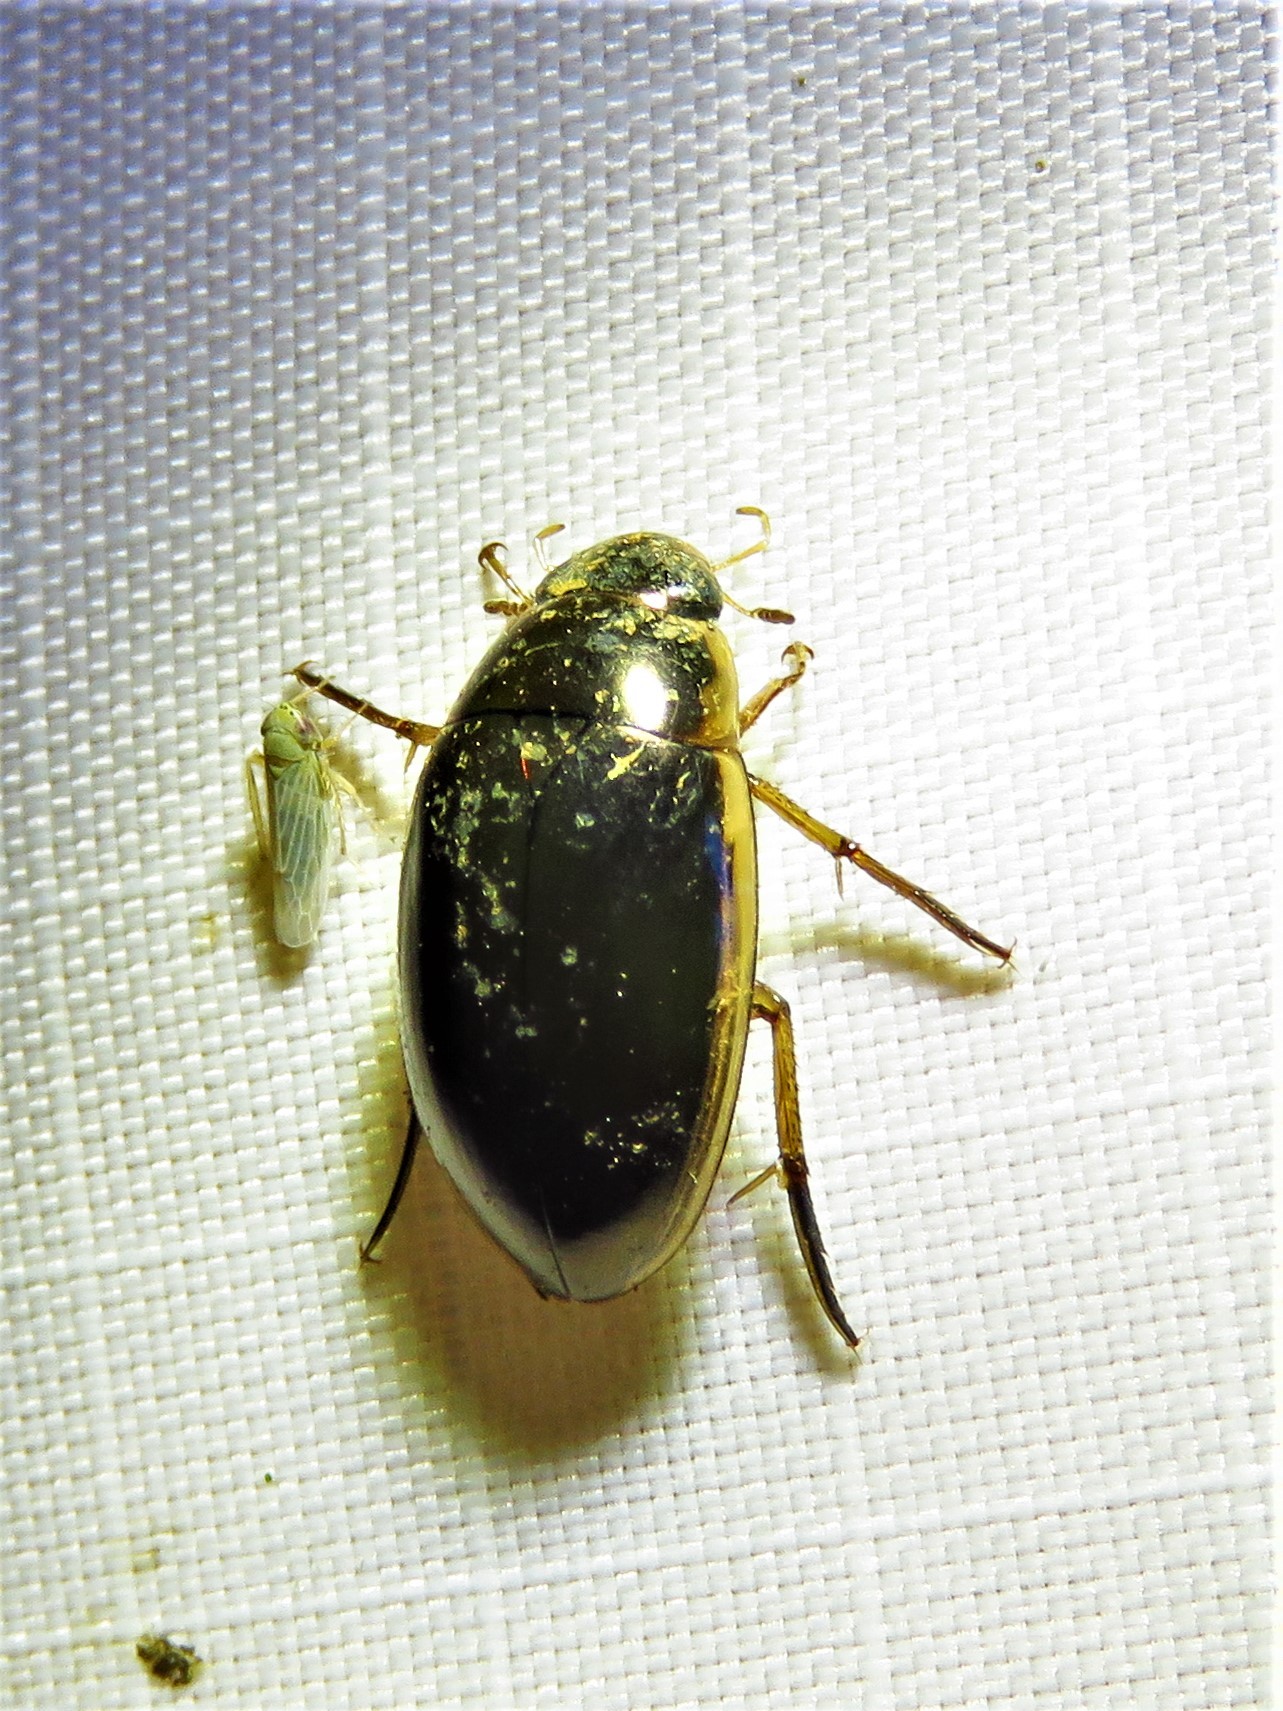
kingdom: Animalia
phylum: Arthropoda
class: Insecta
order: Coleoptera
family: Hydrophilidae
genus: Tropisternus
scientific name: Tropisternus lateralis
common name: Lateral-banded water scavenger beetle
